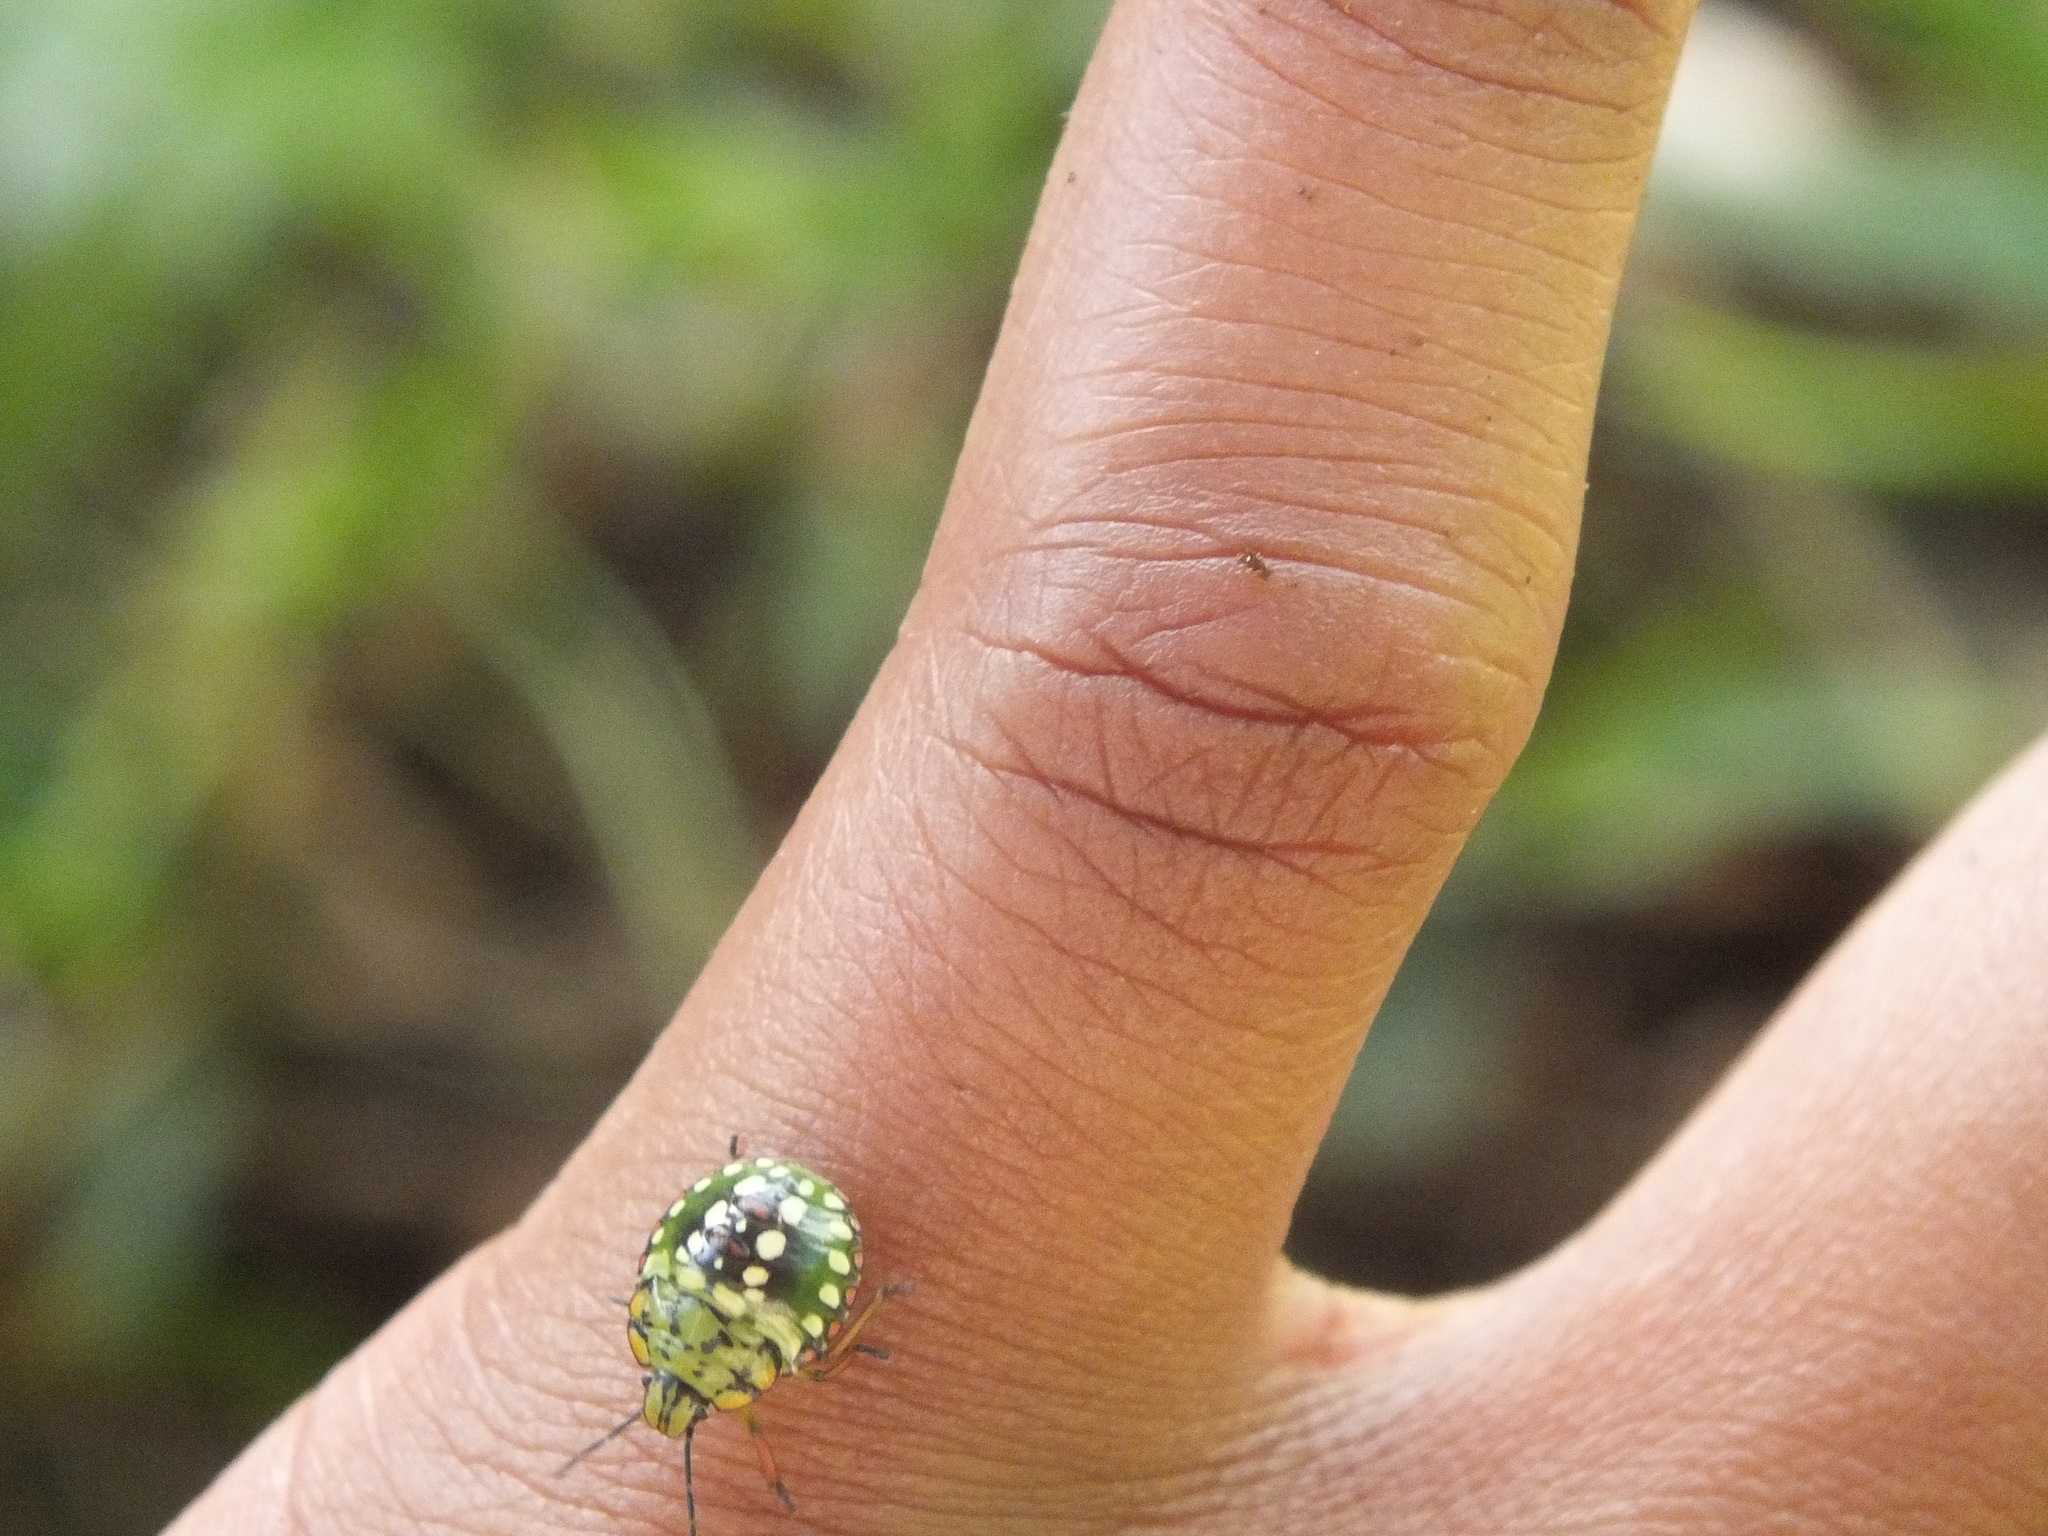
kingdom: Animalia
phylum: Arthropoda
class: Insecta
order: Hemiptera
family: Pentatomidae
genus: Nezara
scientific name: Nezara viridula
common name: Southern green stink bug
